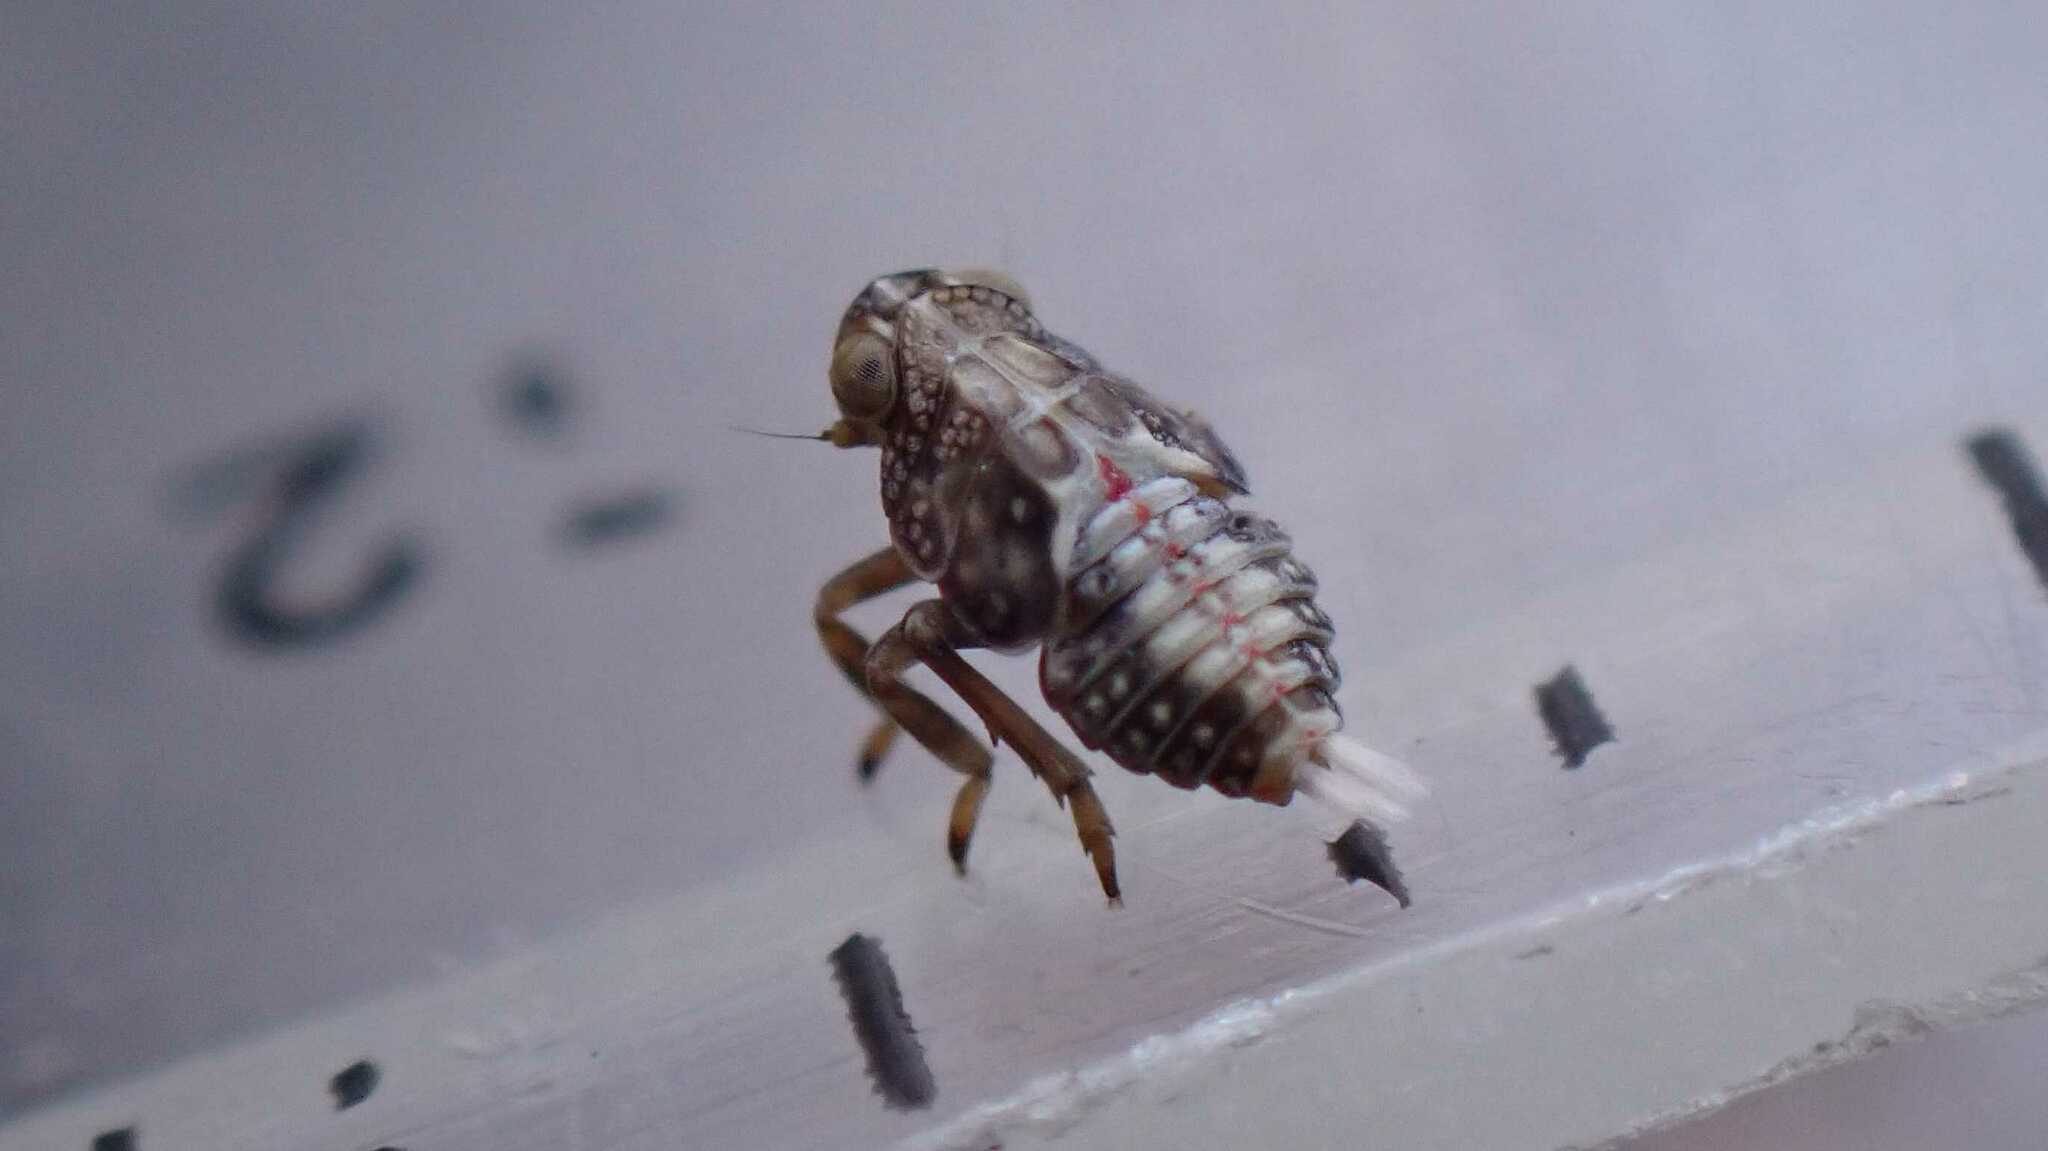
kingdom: Animalia
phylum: Arthropoda
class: Insecta
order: Hemiptera
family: Issidae
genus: Issus
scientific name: Issus coleoptratus
